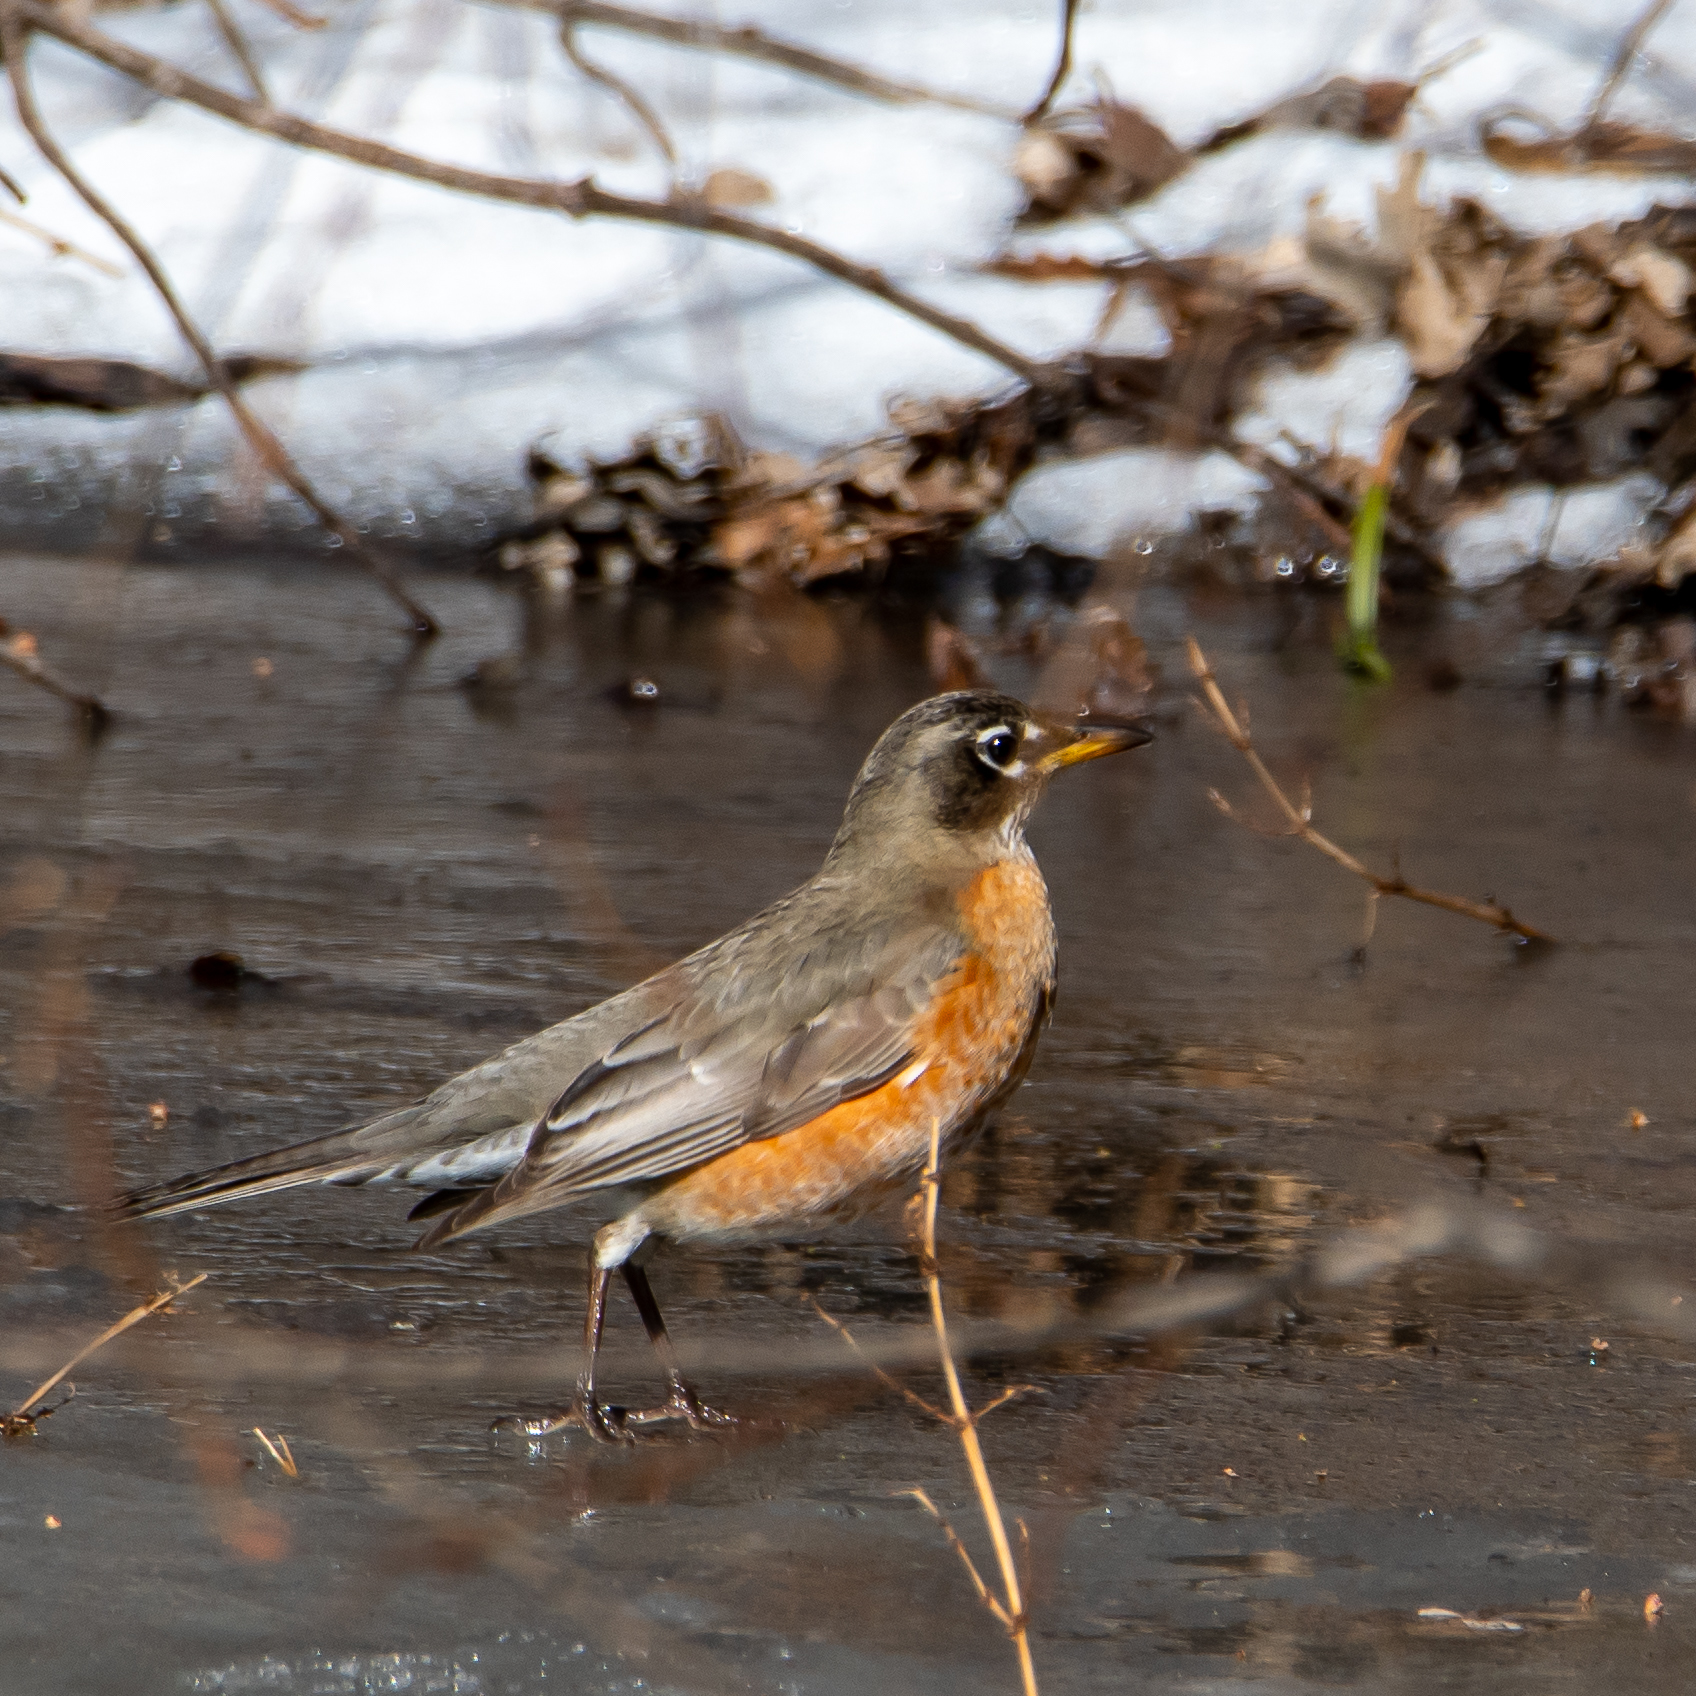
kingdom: Animalia
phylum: Chordata
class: Aves
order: Passeriformes
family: Turdidae
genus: Turdus
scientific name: Turdus migratorius
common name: American robin
